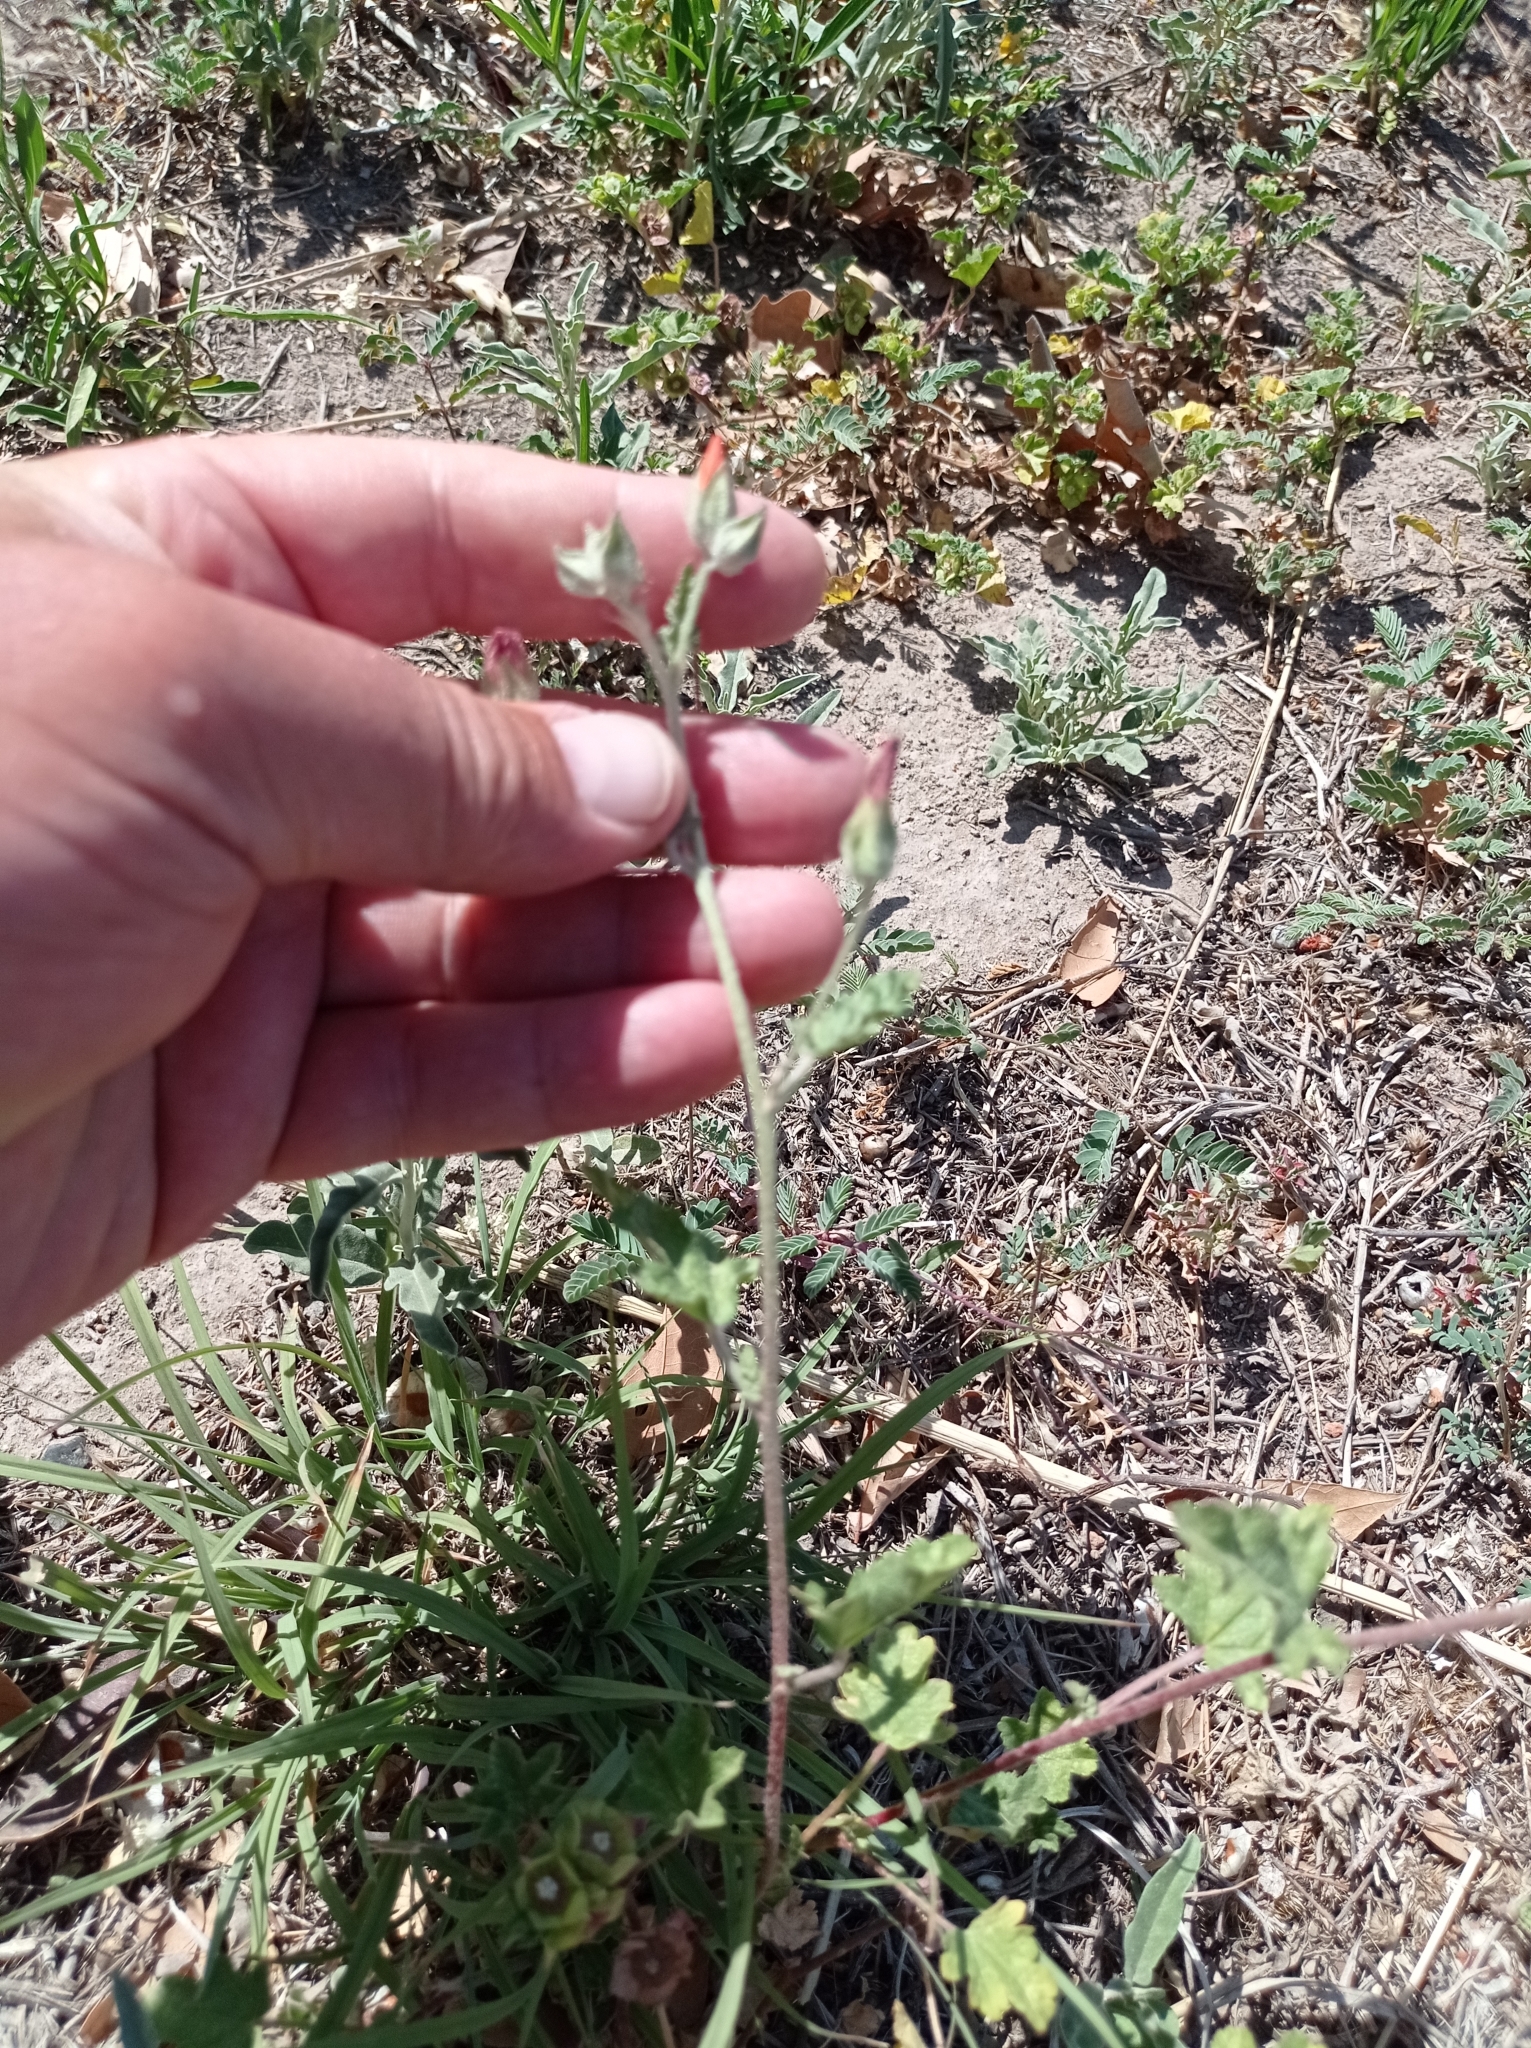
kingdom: Plantae
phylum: Tracheophyta
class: Magnoliopsida
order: Malvales
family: Malvaceae
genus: Sphaeralcea
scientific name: Sphaeralcea miniata
